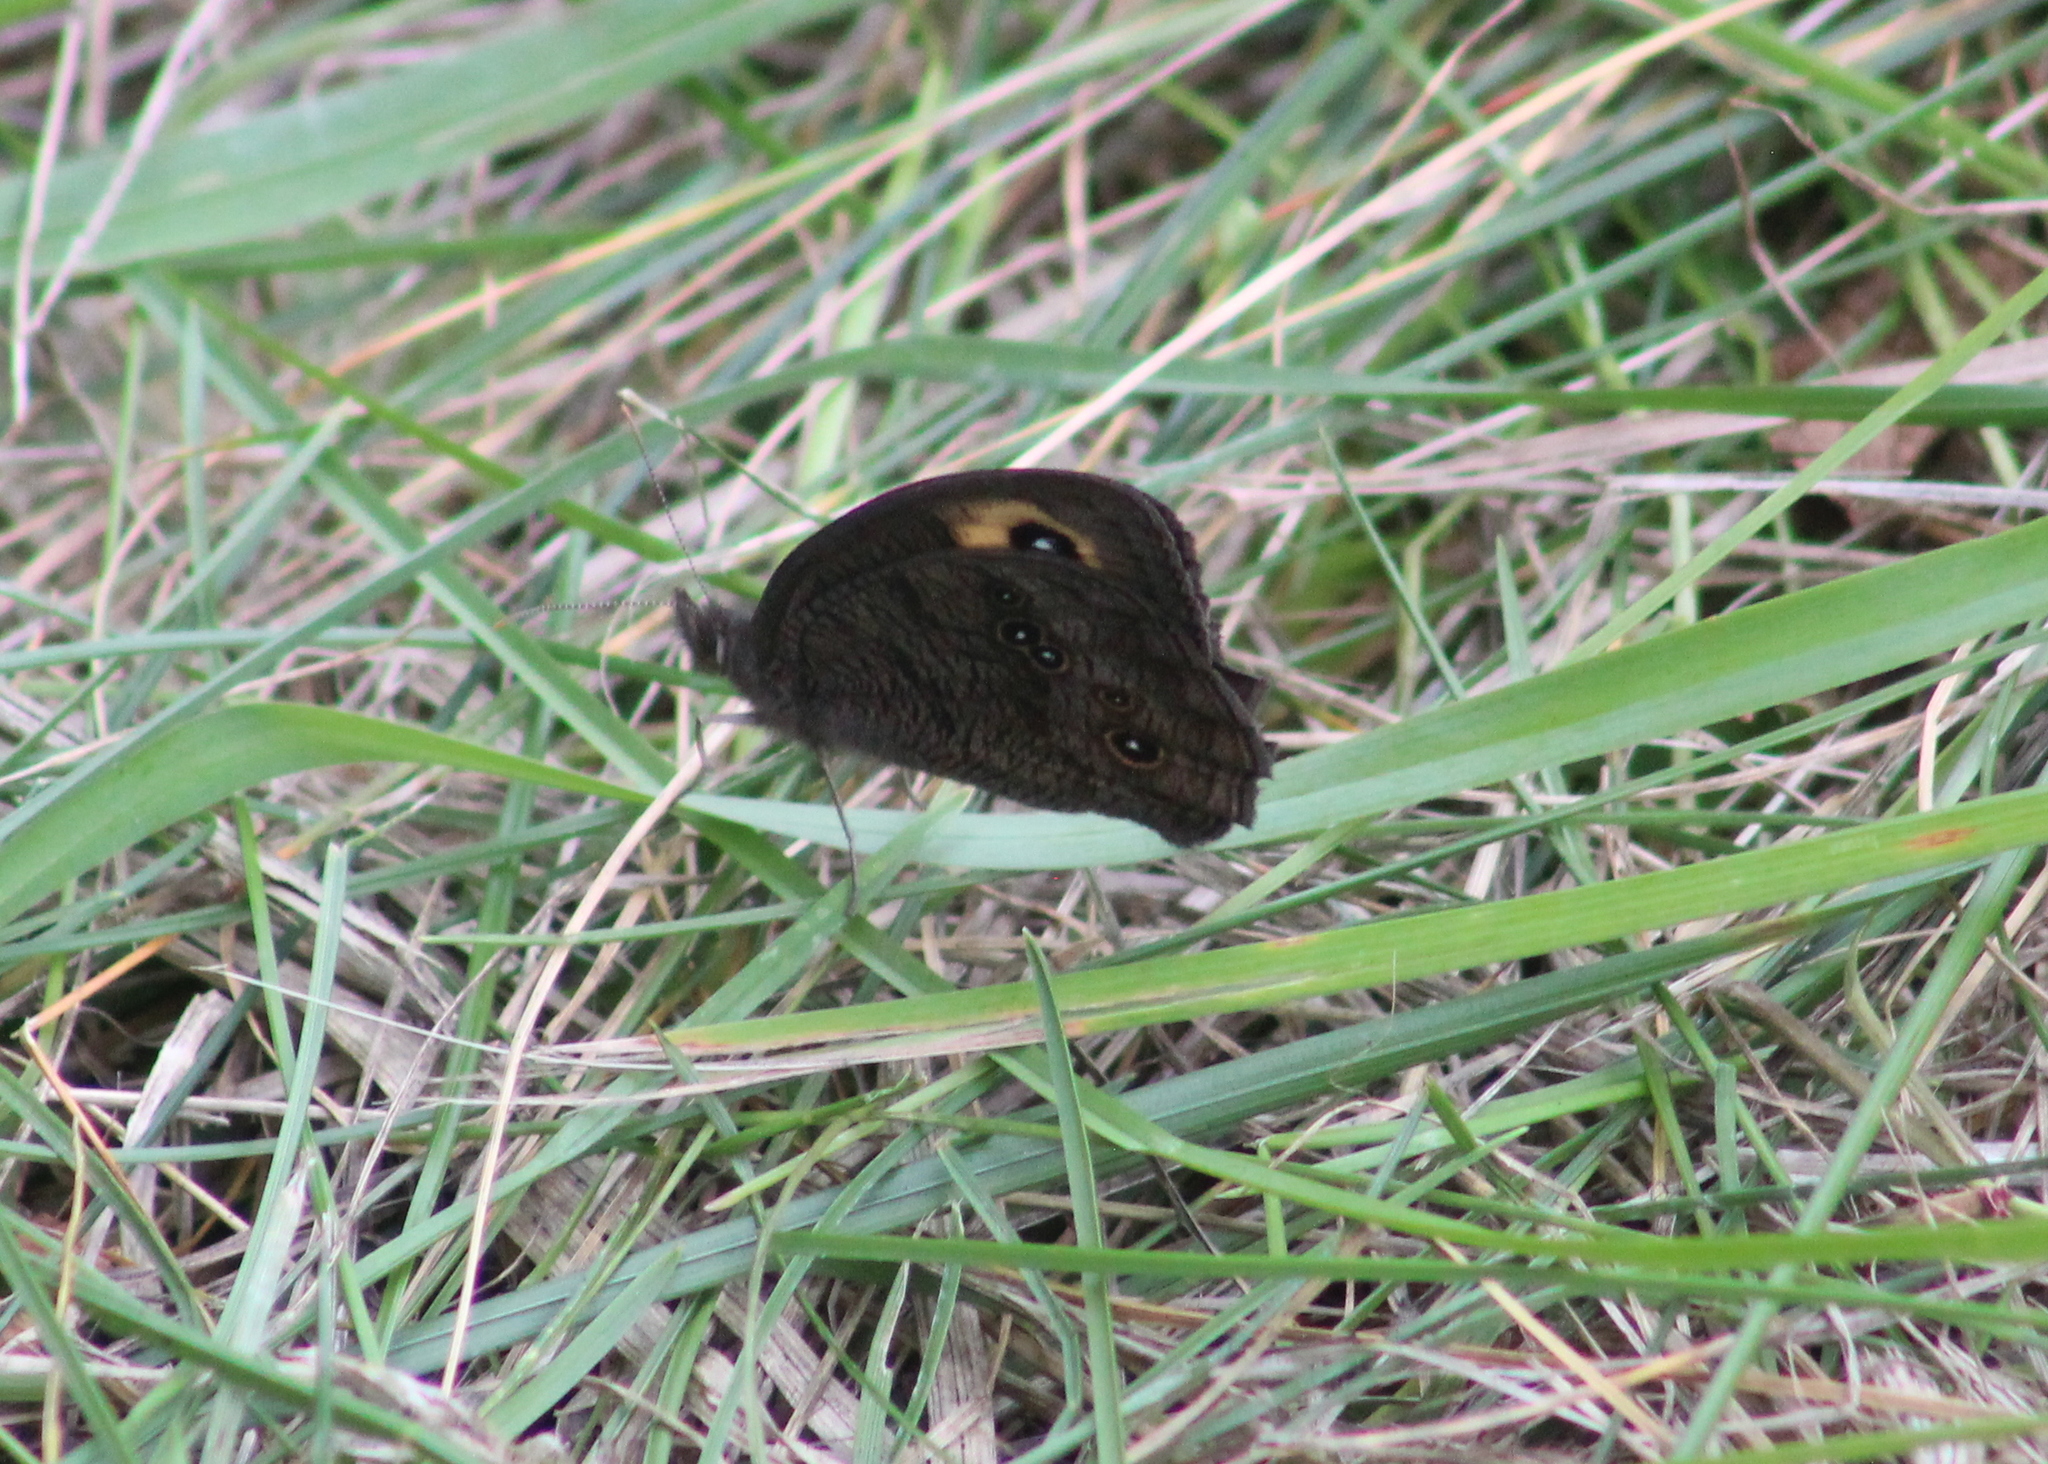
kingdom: Animalia
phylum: Arthropoda
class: Insecta
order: Lepidoptera
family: Nymphalidae
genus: Cercyonis
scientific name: Cercyonis pegala
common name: Common wood-nymph
